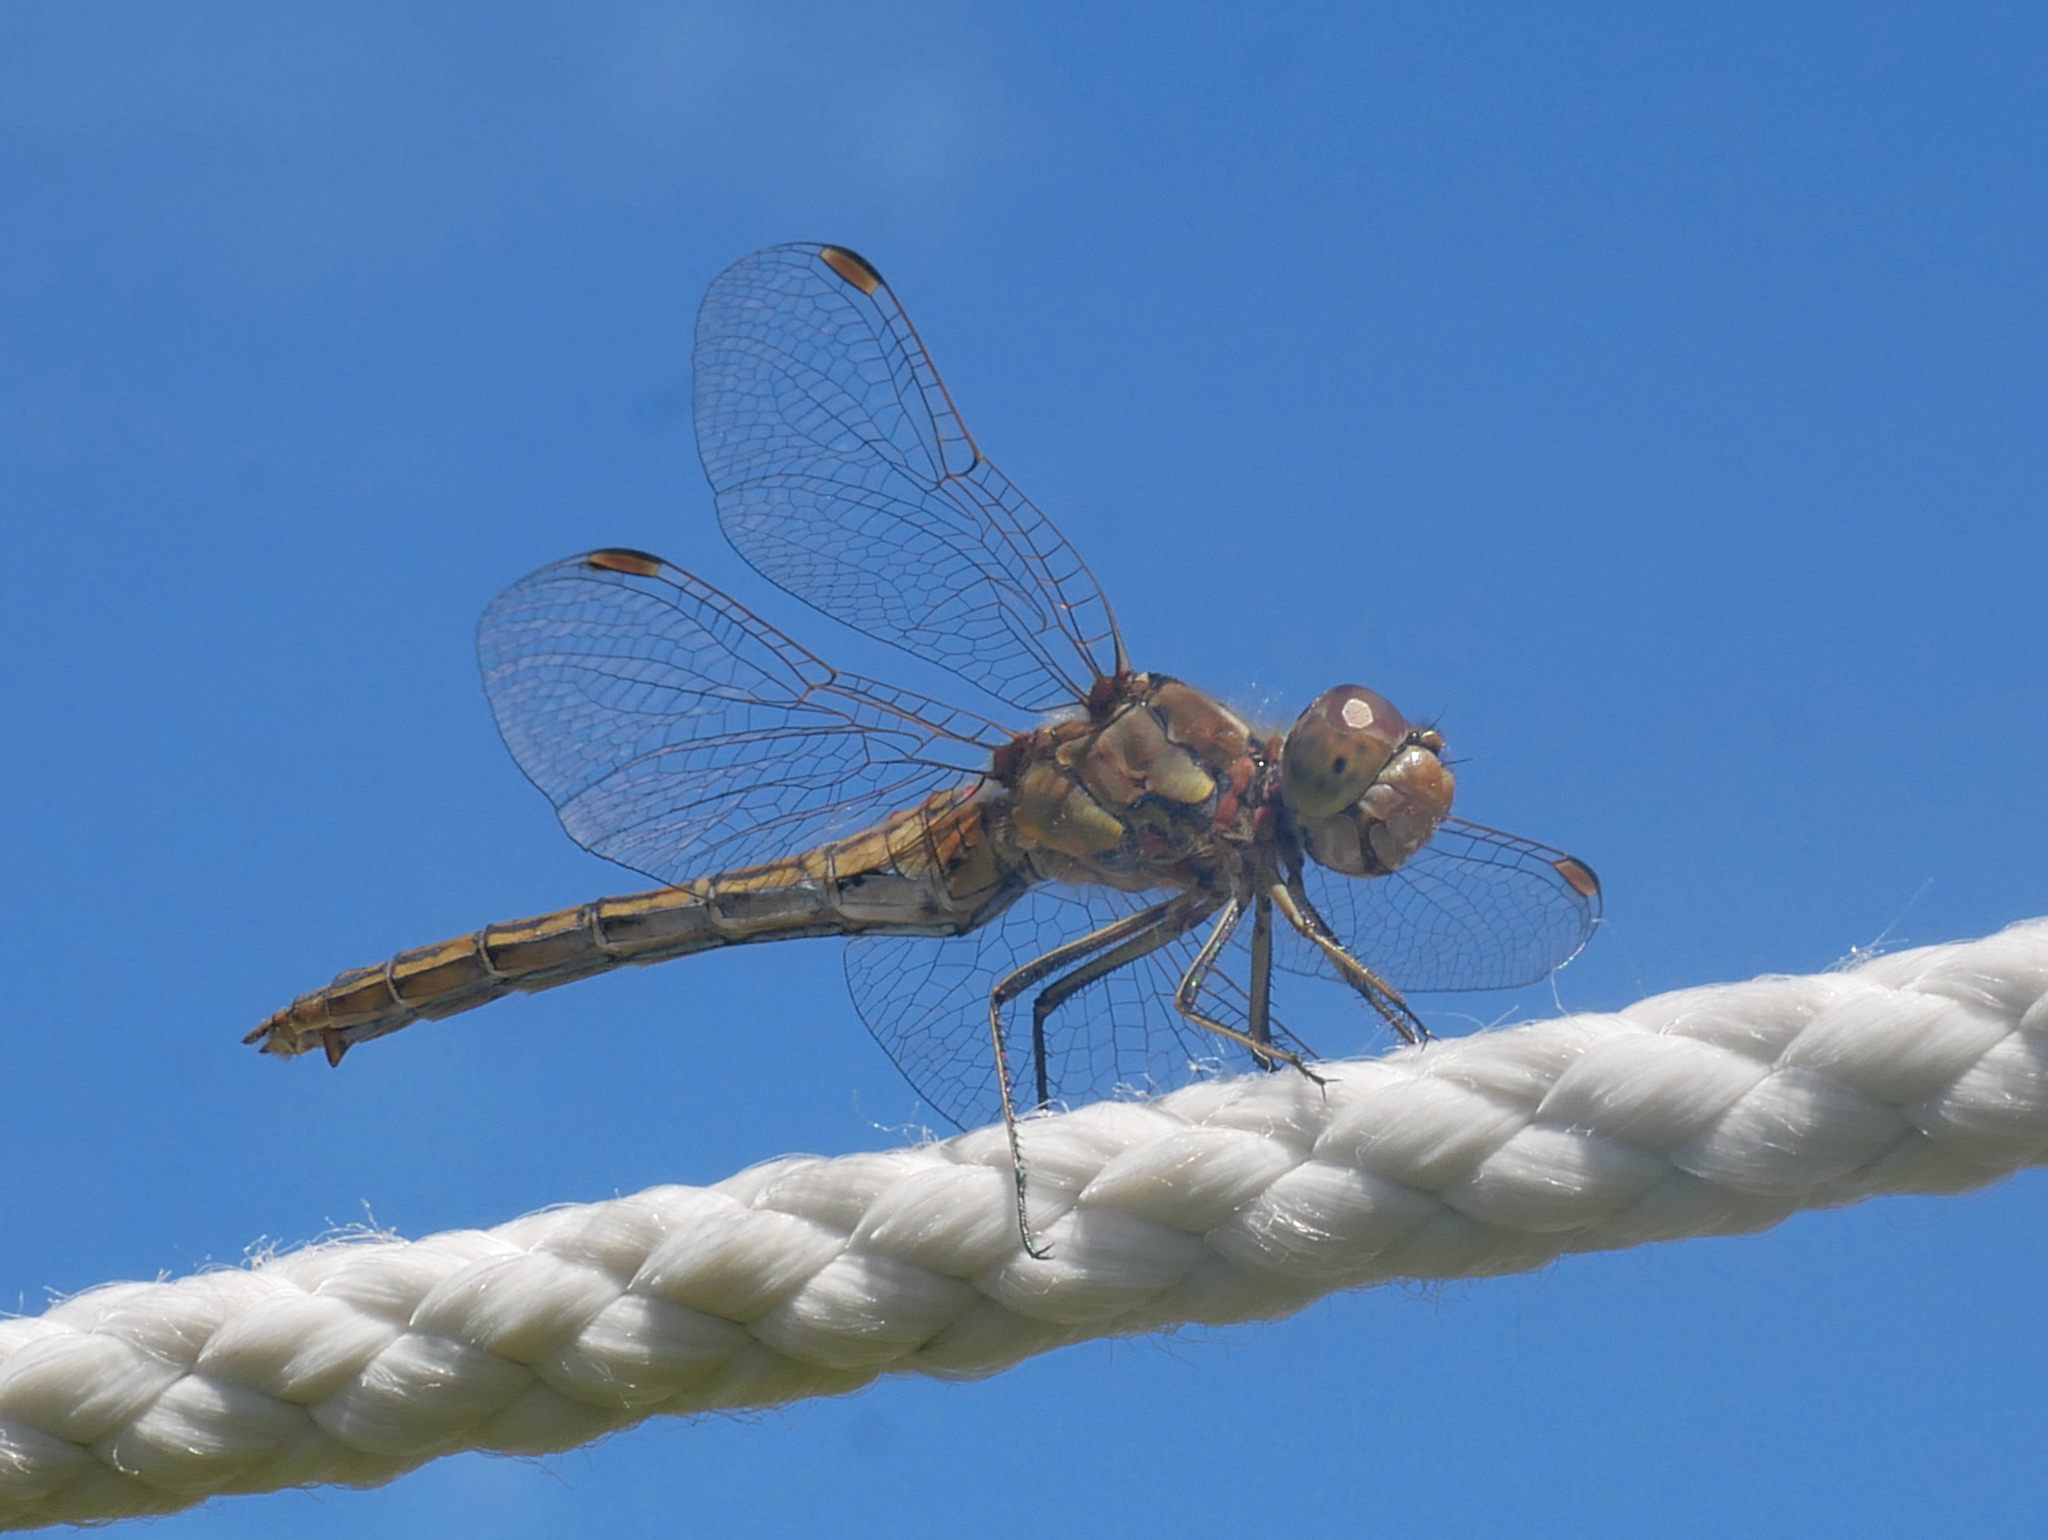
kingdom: Animalia
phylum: Arthropoda
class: Insecta
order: Odonata
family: Libellulidae
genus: Sympetrum
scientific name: Sympetrum vulgatum
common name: Vagrant darter
